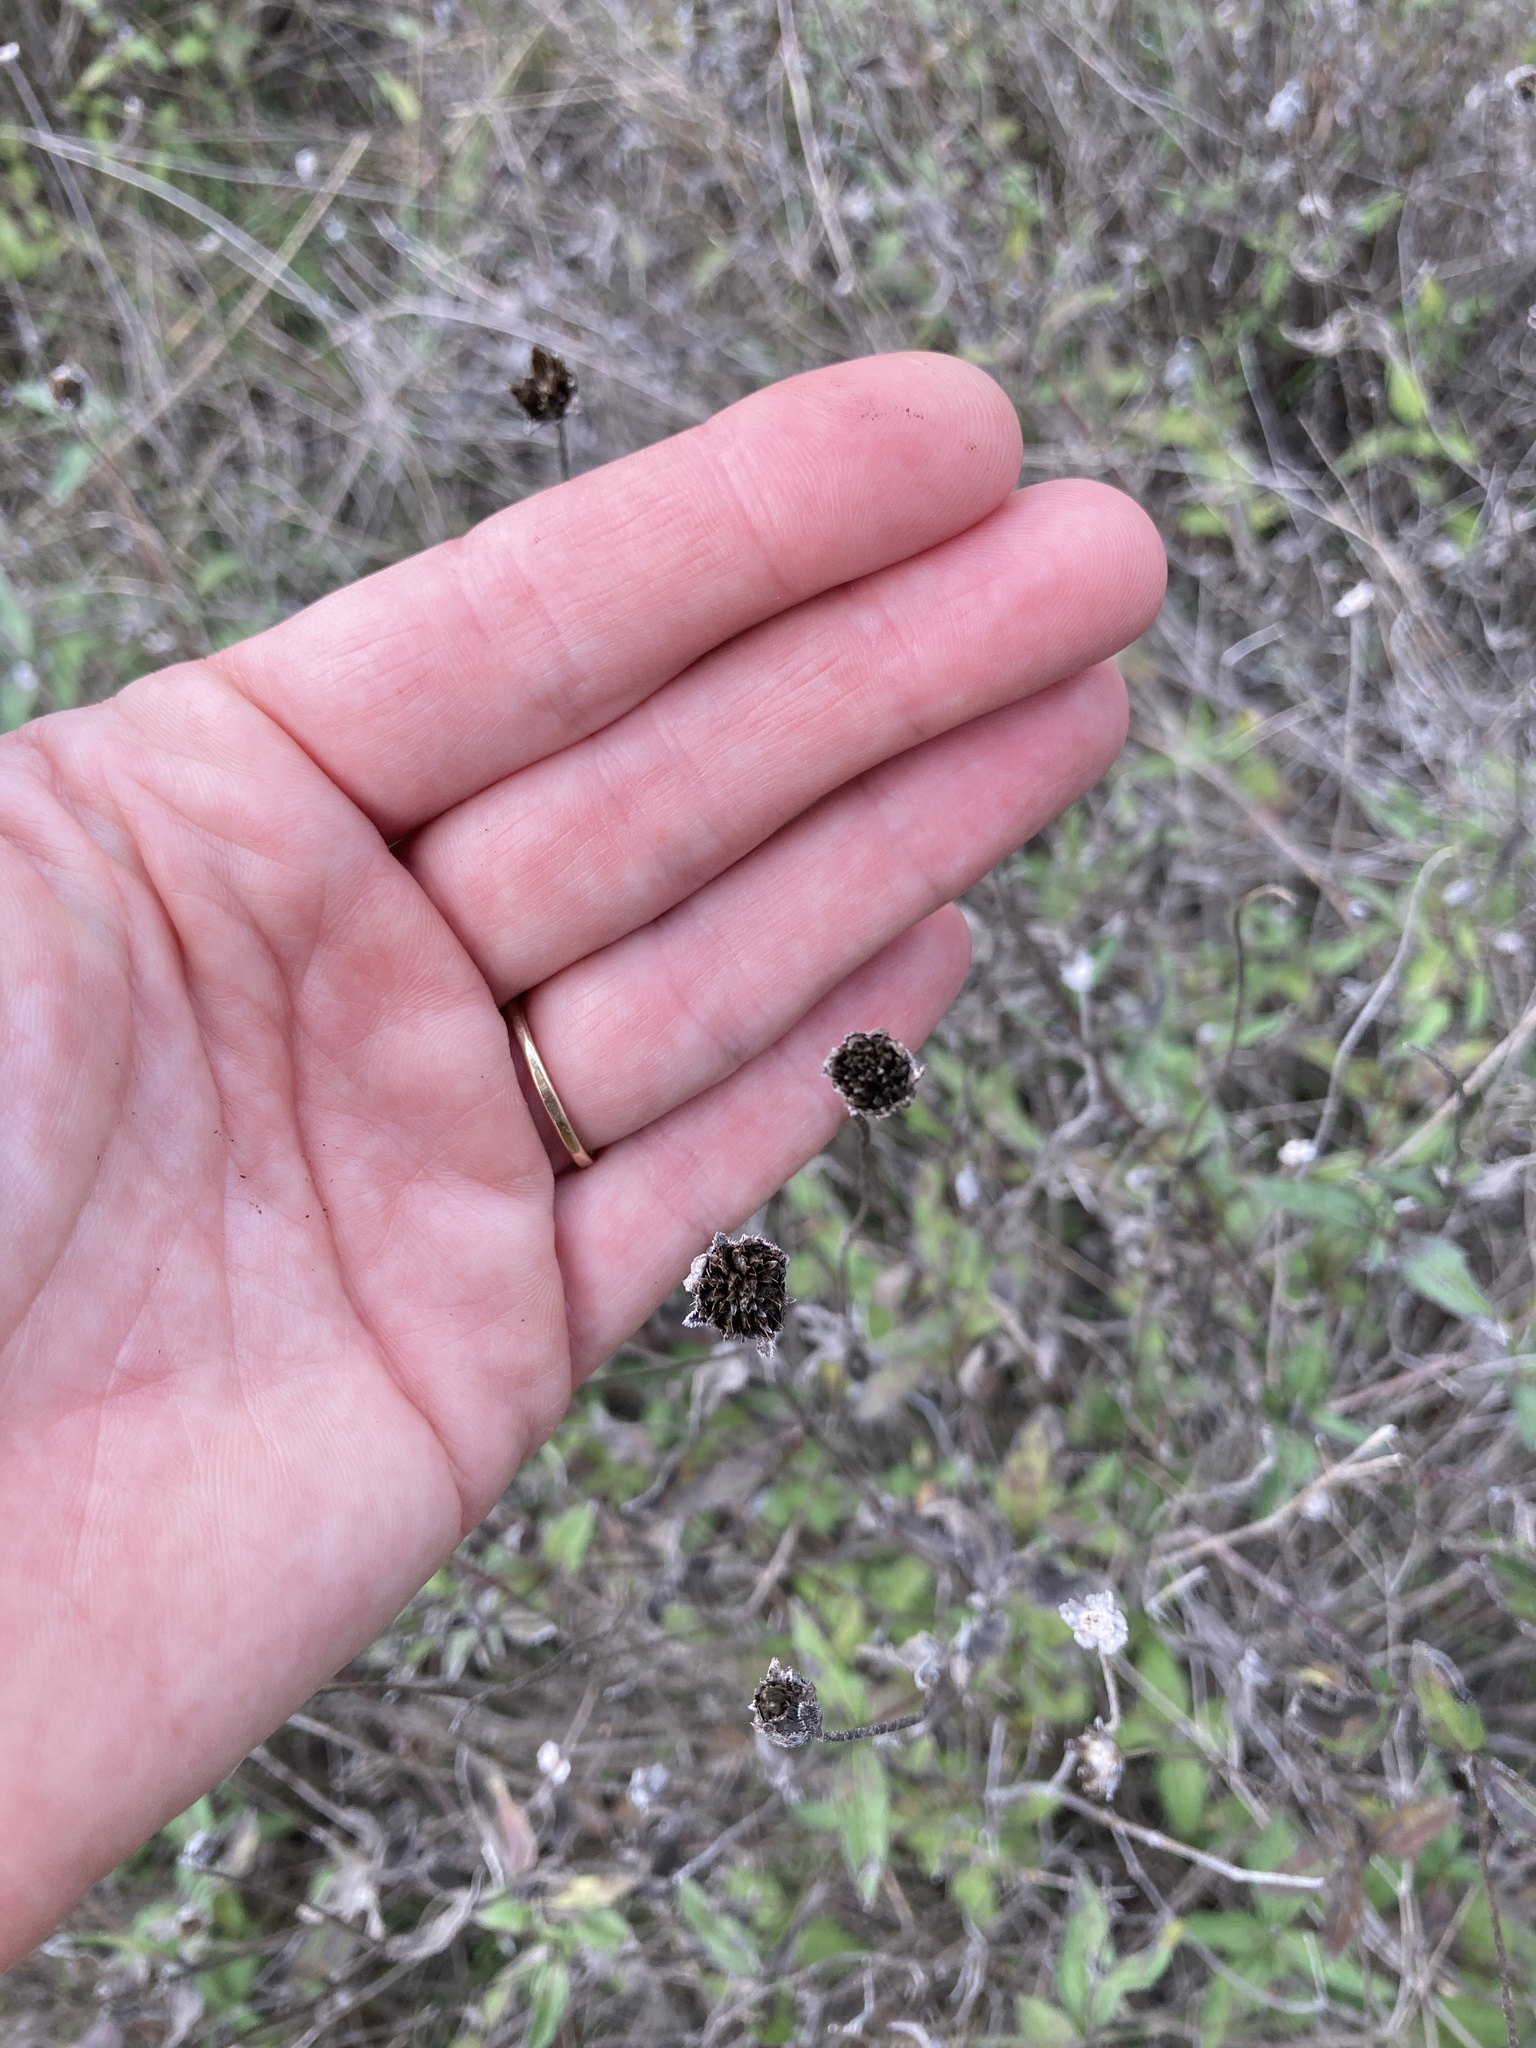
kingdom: Plantae
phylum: Tracheophyta
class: Magnoliopsida
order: Asterales
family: Asteraceae
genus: Wedelia
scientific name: Wedelia acapulcensis
